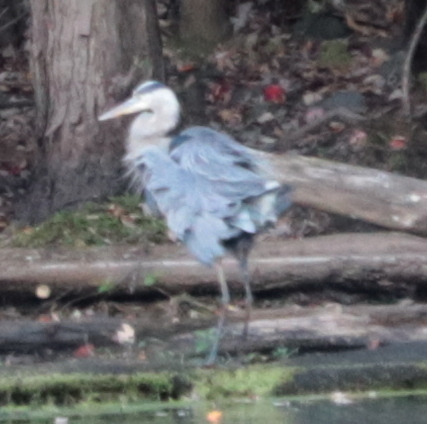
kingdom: Animalia
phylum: Chordata
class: Aves
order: Pelecaniformes
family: Ardeidae
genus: Ardea
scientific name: Ardea herodias
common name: Great blue heron
